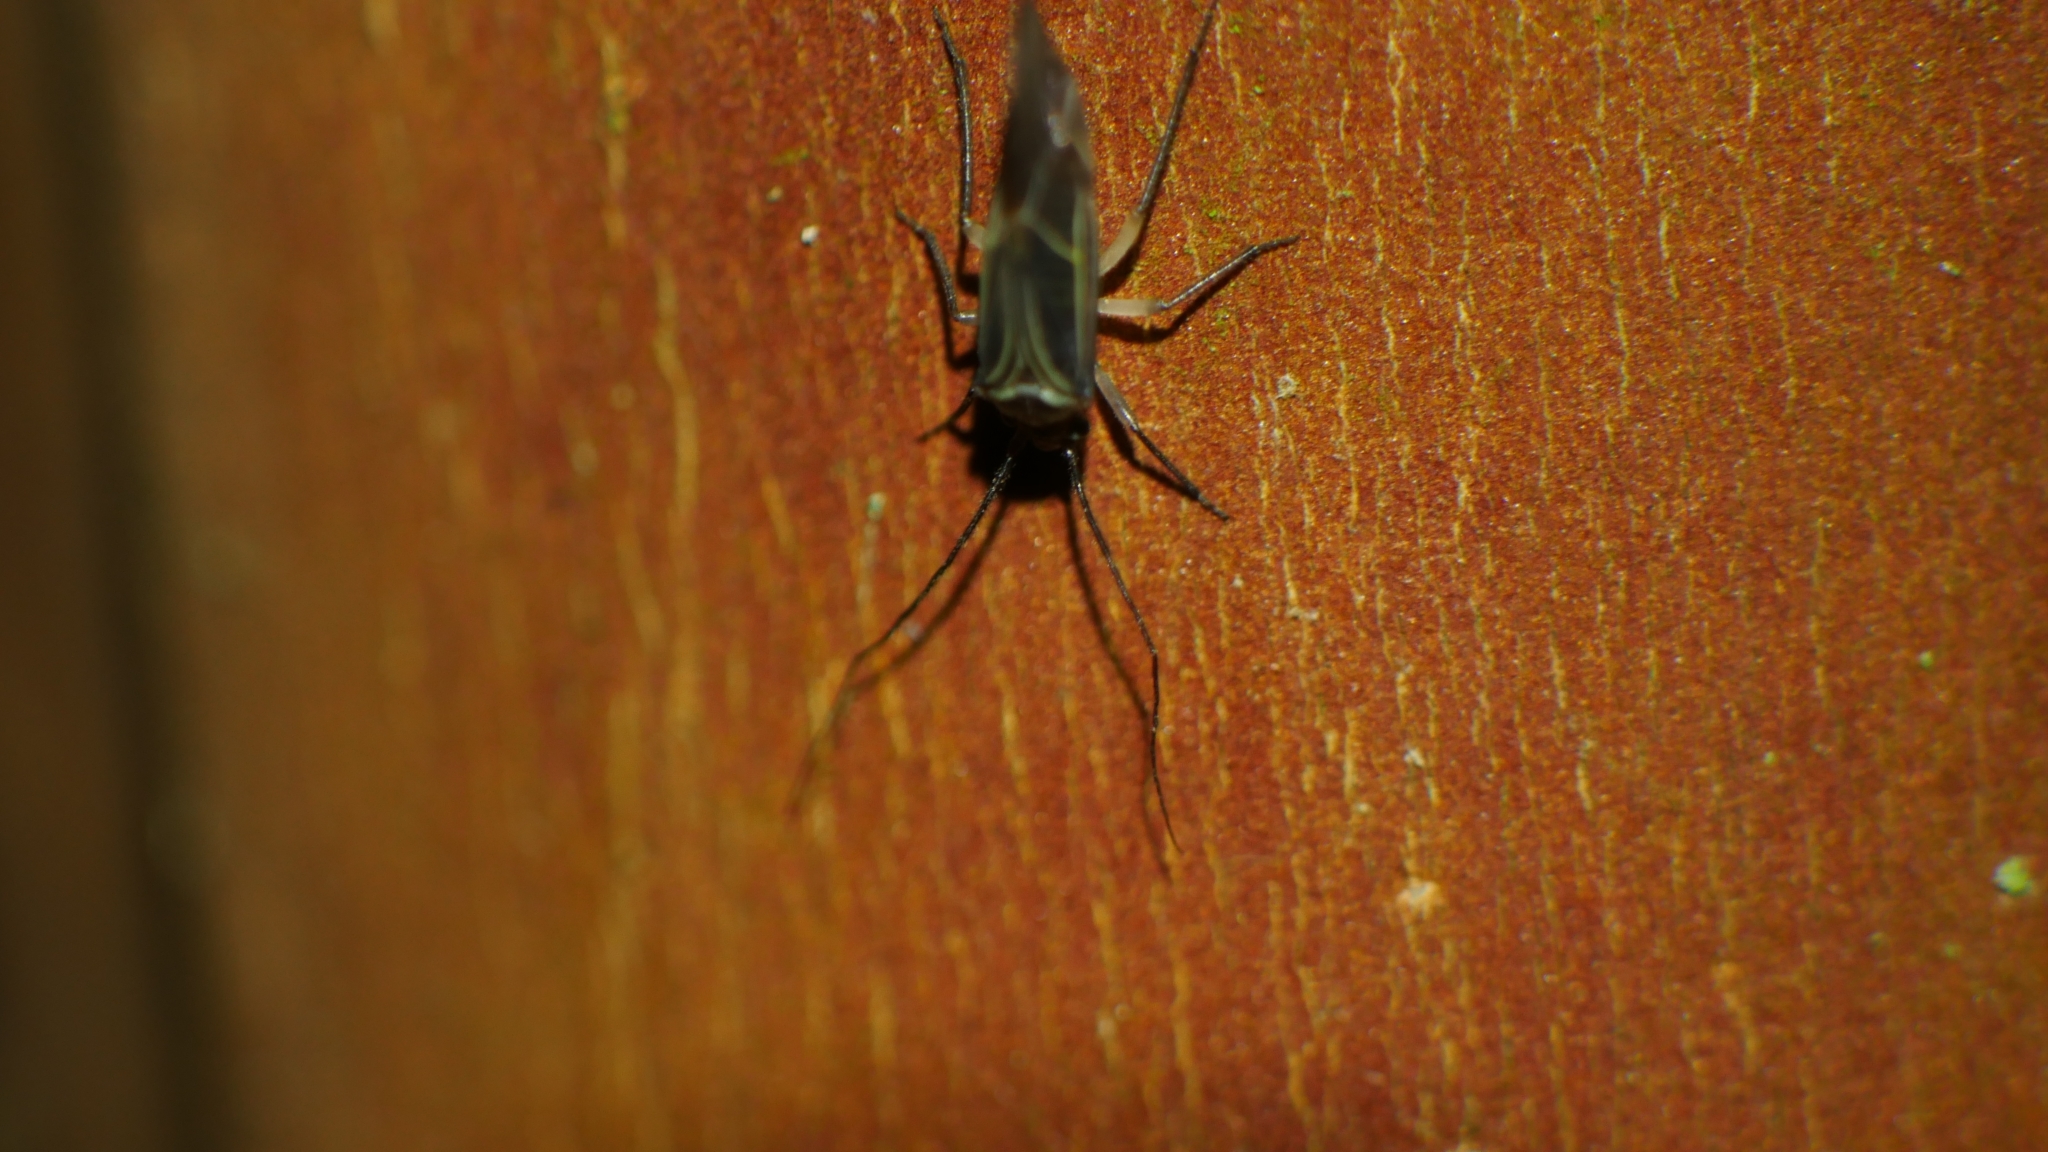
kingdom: Animalia
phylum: Arthropoda
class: Insecta
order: Psocodea
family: Psocidae
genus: Cerastipsocus
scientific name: Cerastipsocus venosus
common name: Tree cattle
